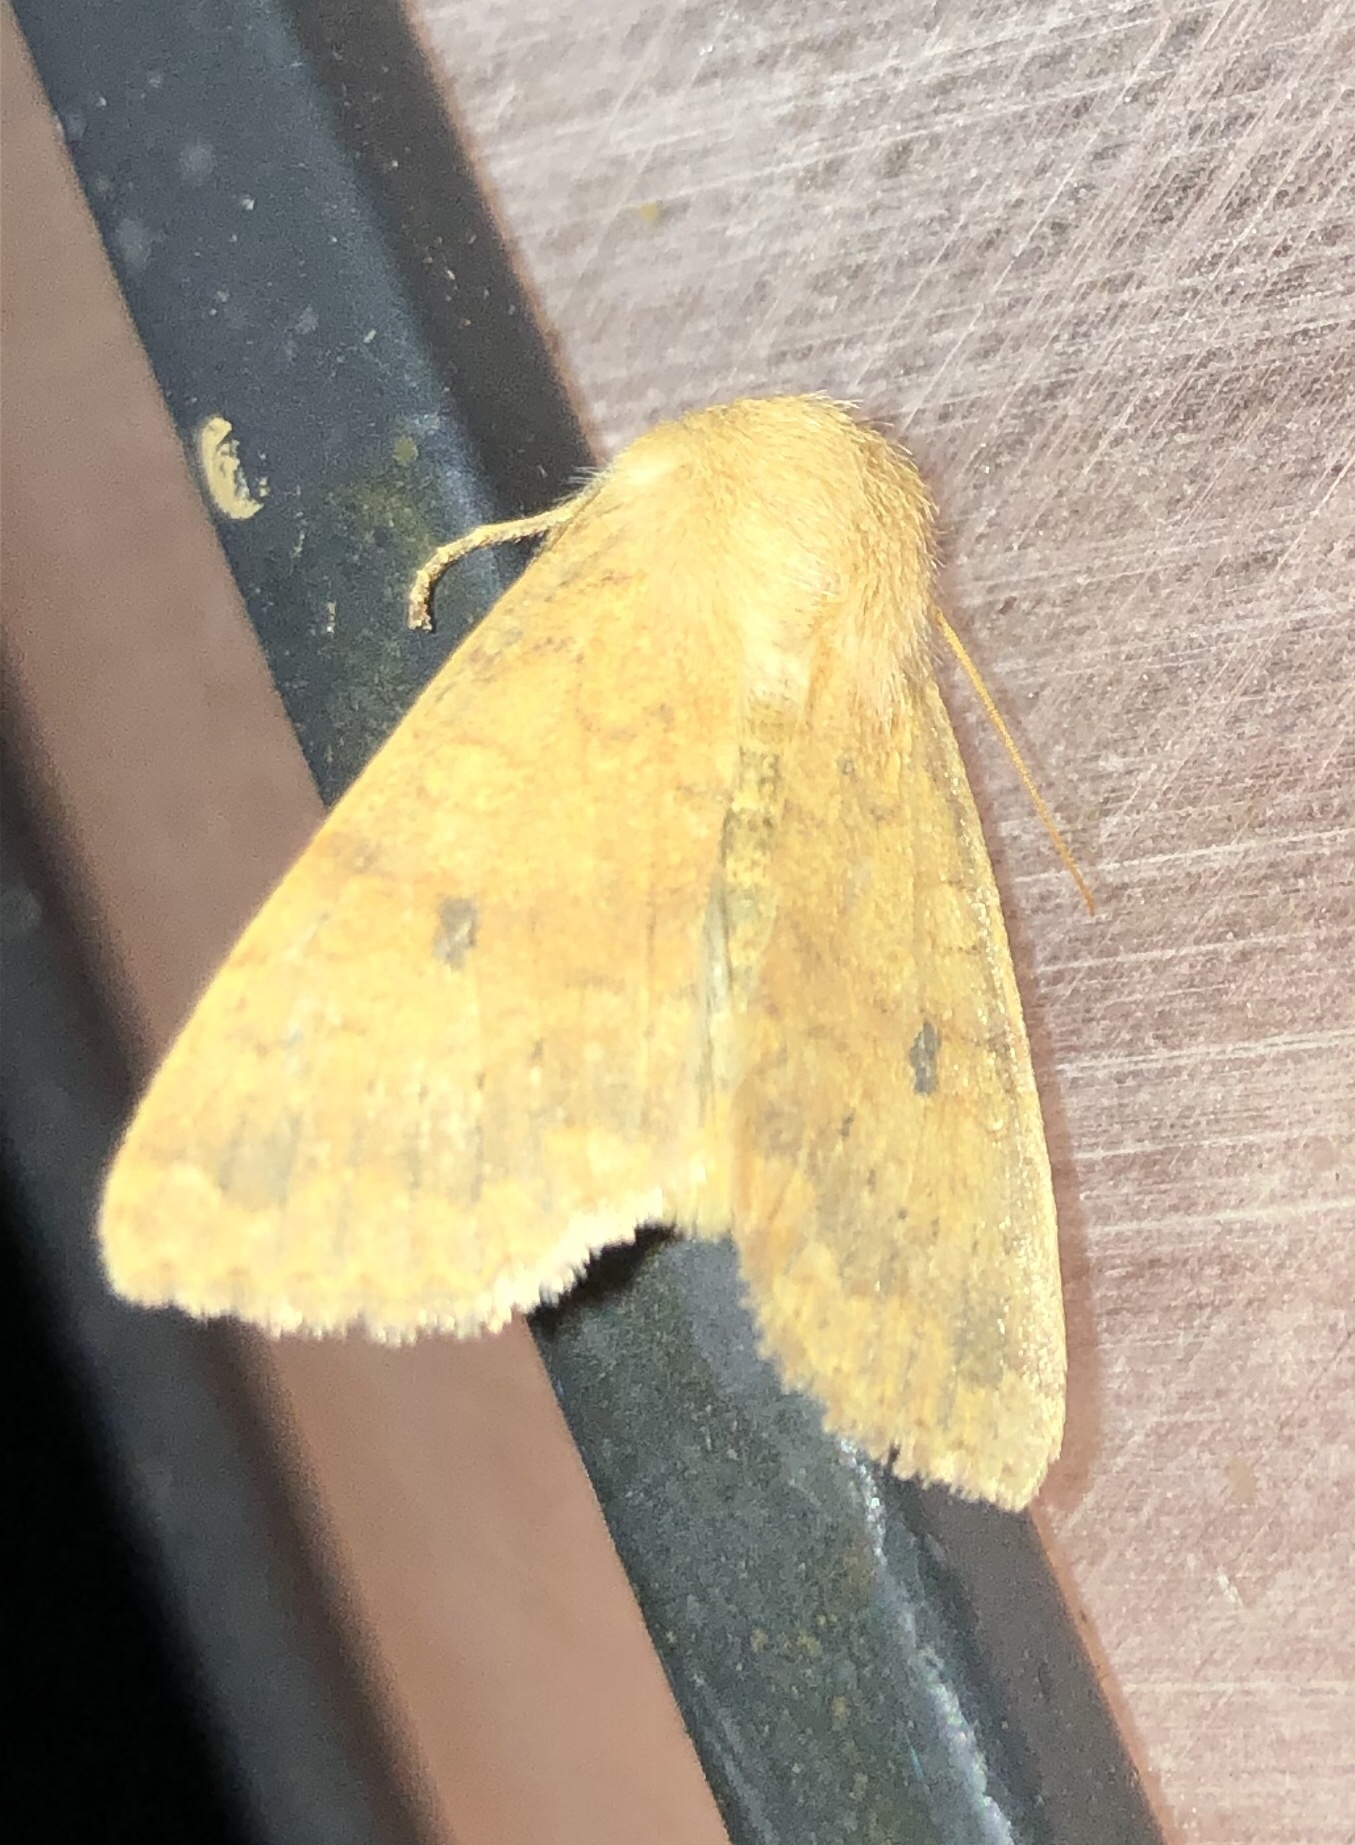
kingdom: Animalia
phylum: Arthropoda
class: Insecta
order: Lepidoptera
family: Noctuidae
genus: Agrochola
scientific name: Agrochola bicolorago
